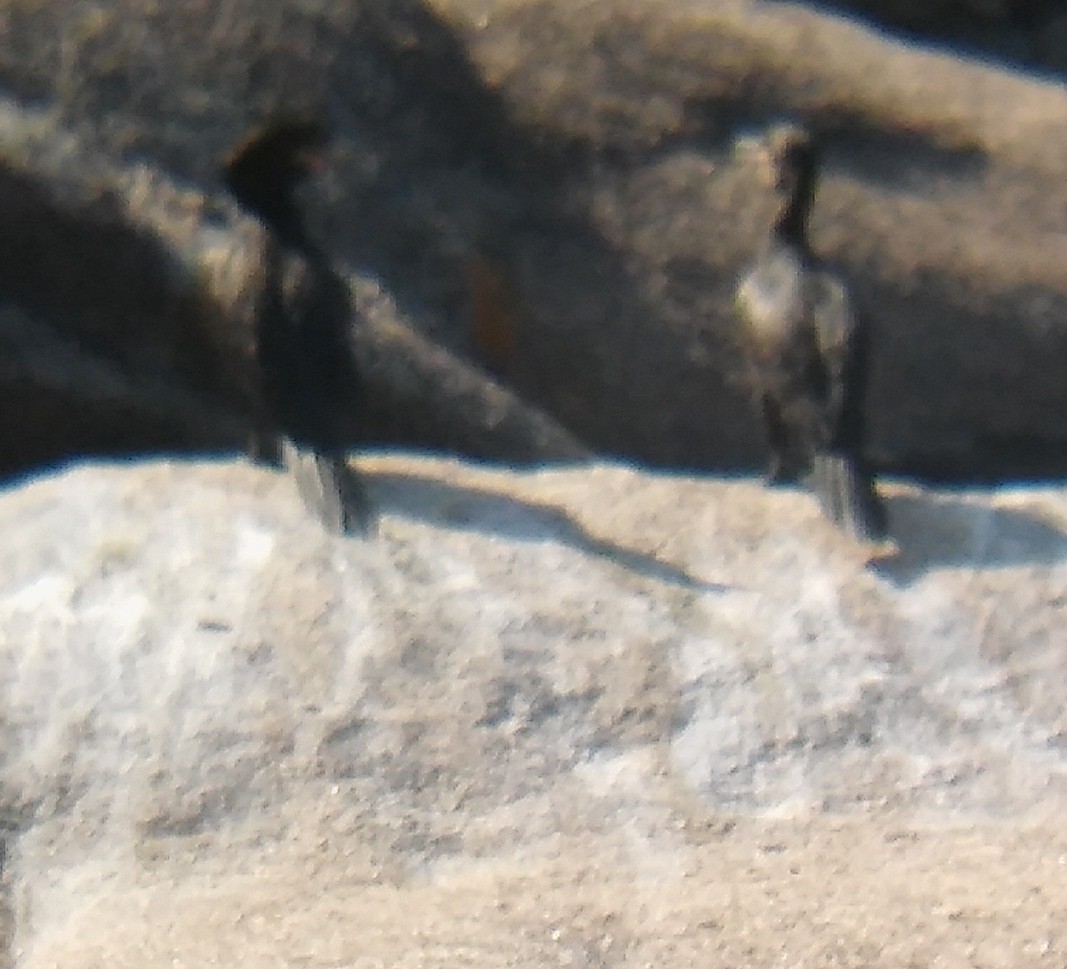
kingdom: Animalia
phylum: Chordata
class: Aves
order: Suliformes
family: Phalacrocoracidae
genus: Phalacrocorax
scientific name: Phalacrocorax brasilianus
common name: Neotropic cormorant
